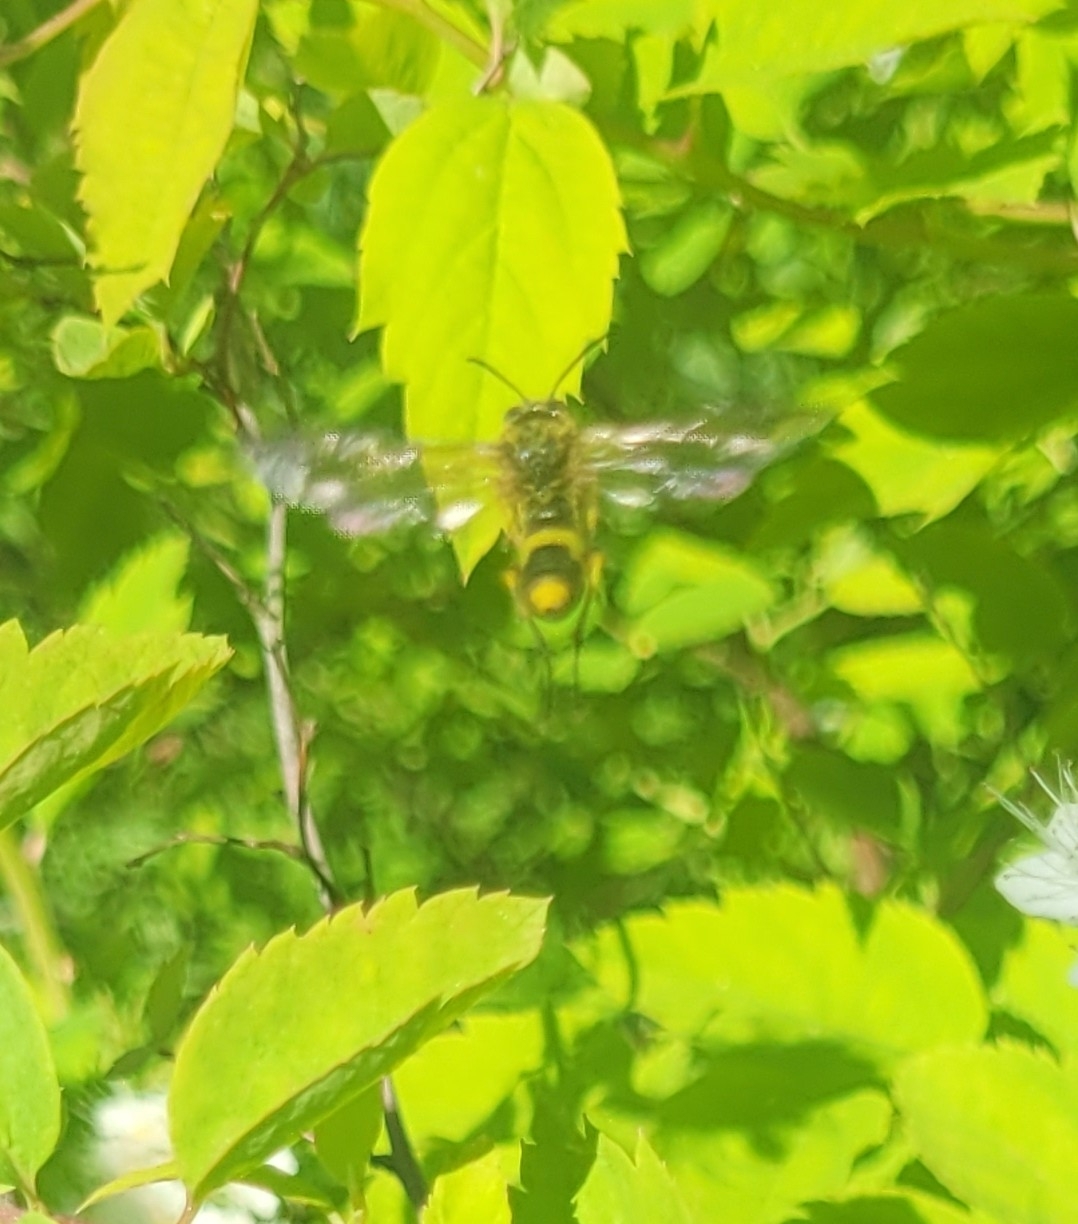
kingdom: Animalia
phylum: Arthropoda
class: Insecta
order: Hymenoptera
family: Tenthredinidae
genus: Tenthredo
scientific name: Tenthredo temula
